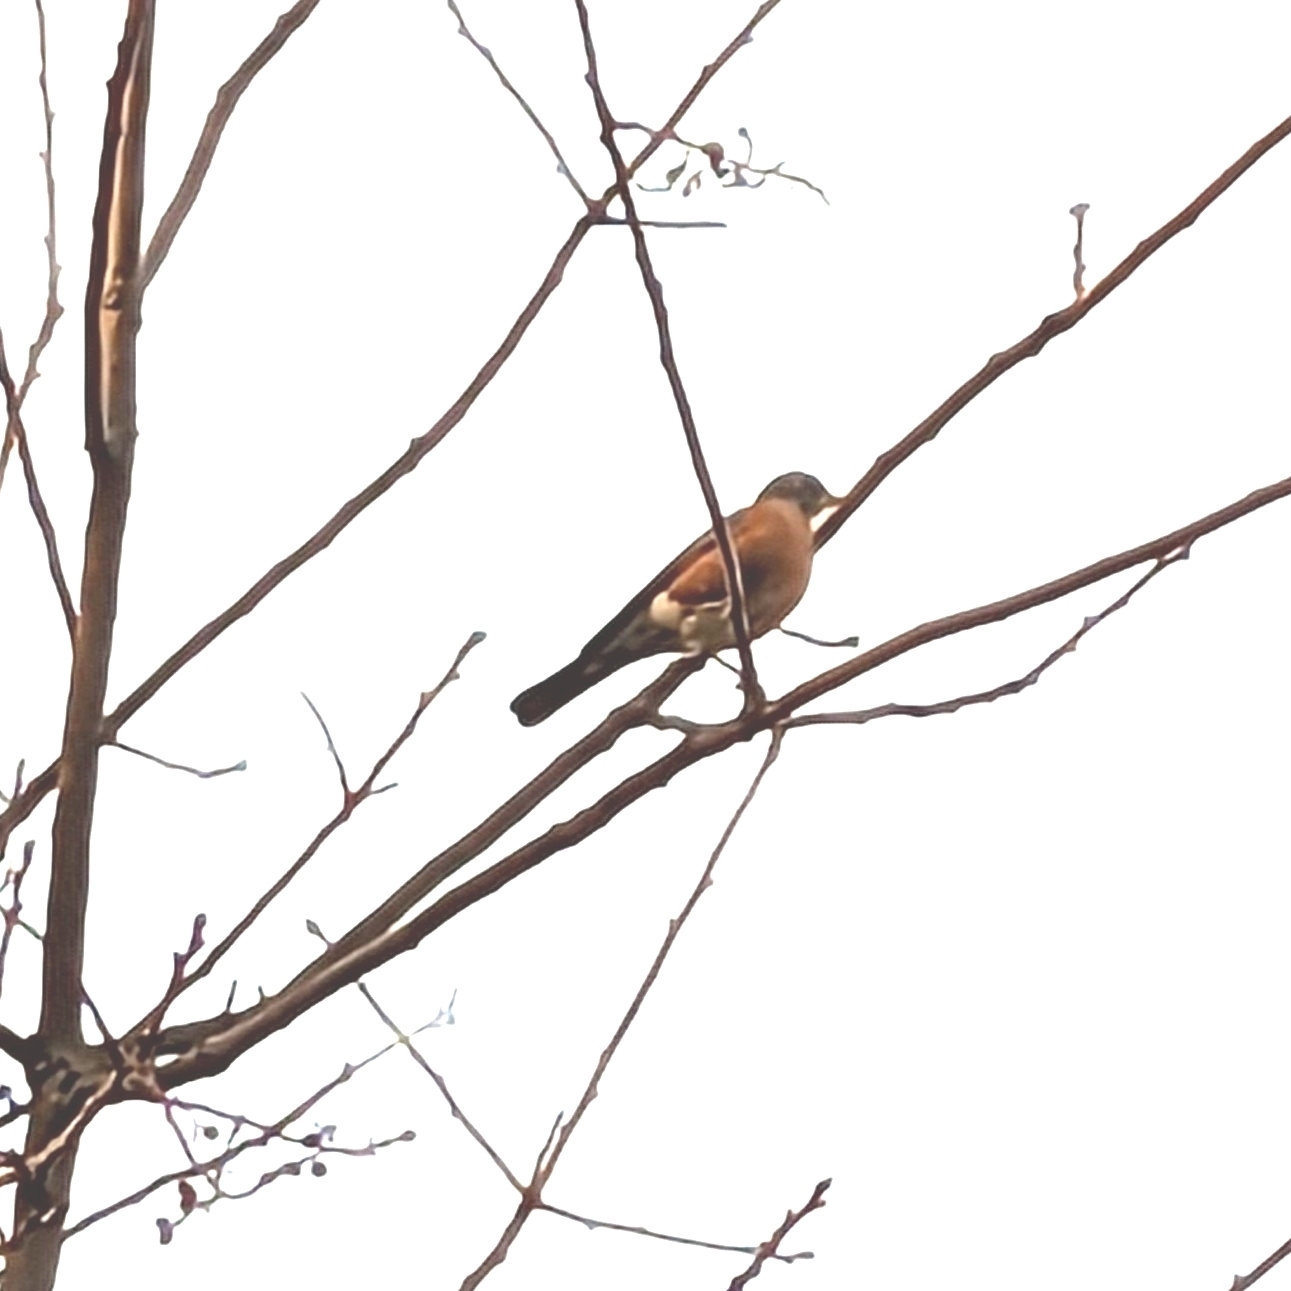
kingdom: Animalia
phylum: Chordata
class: Aves
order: Passeriformes
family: Turdidae
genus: Turdus
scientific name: Turdus migratorius
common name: American robin
